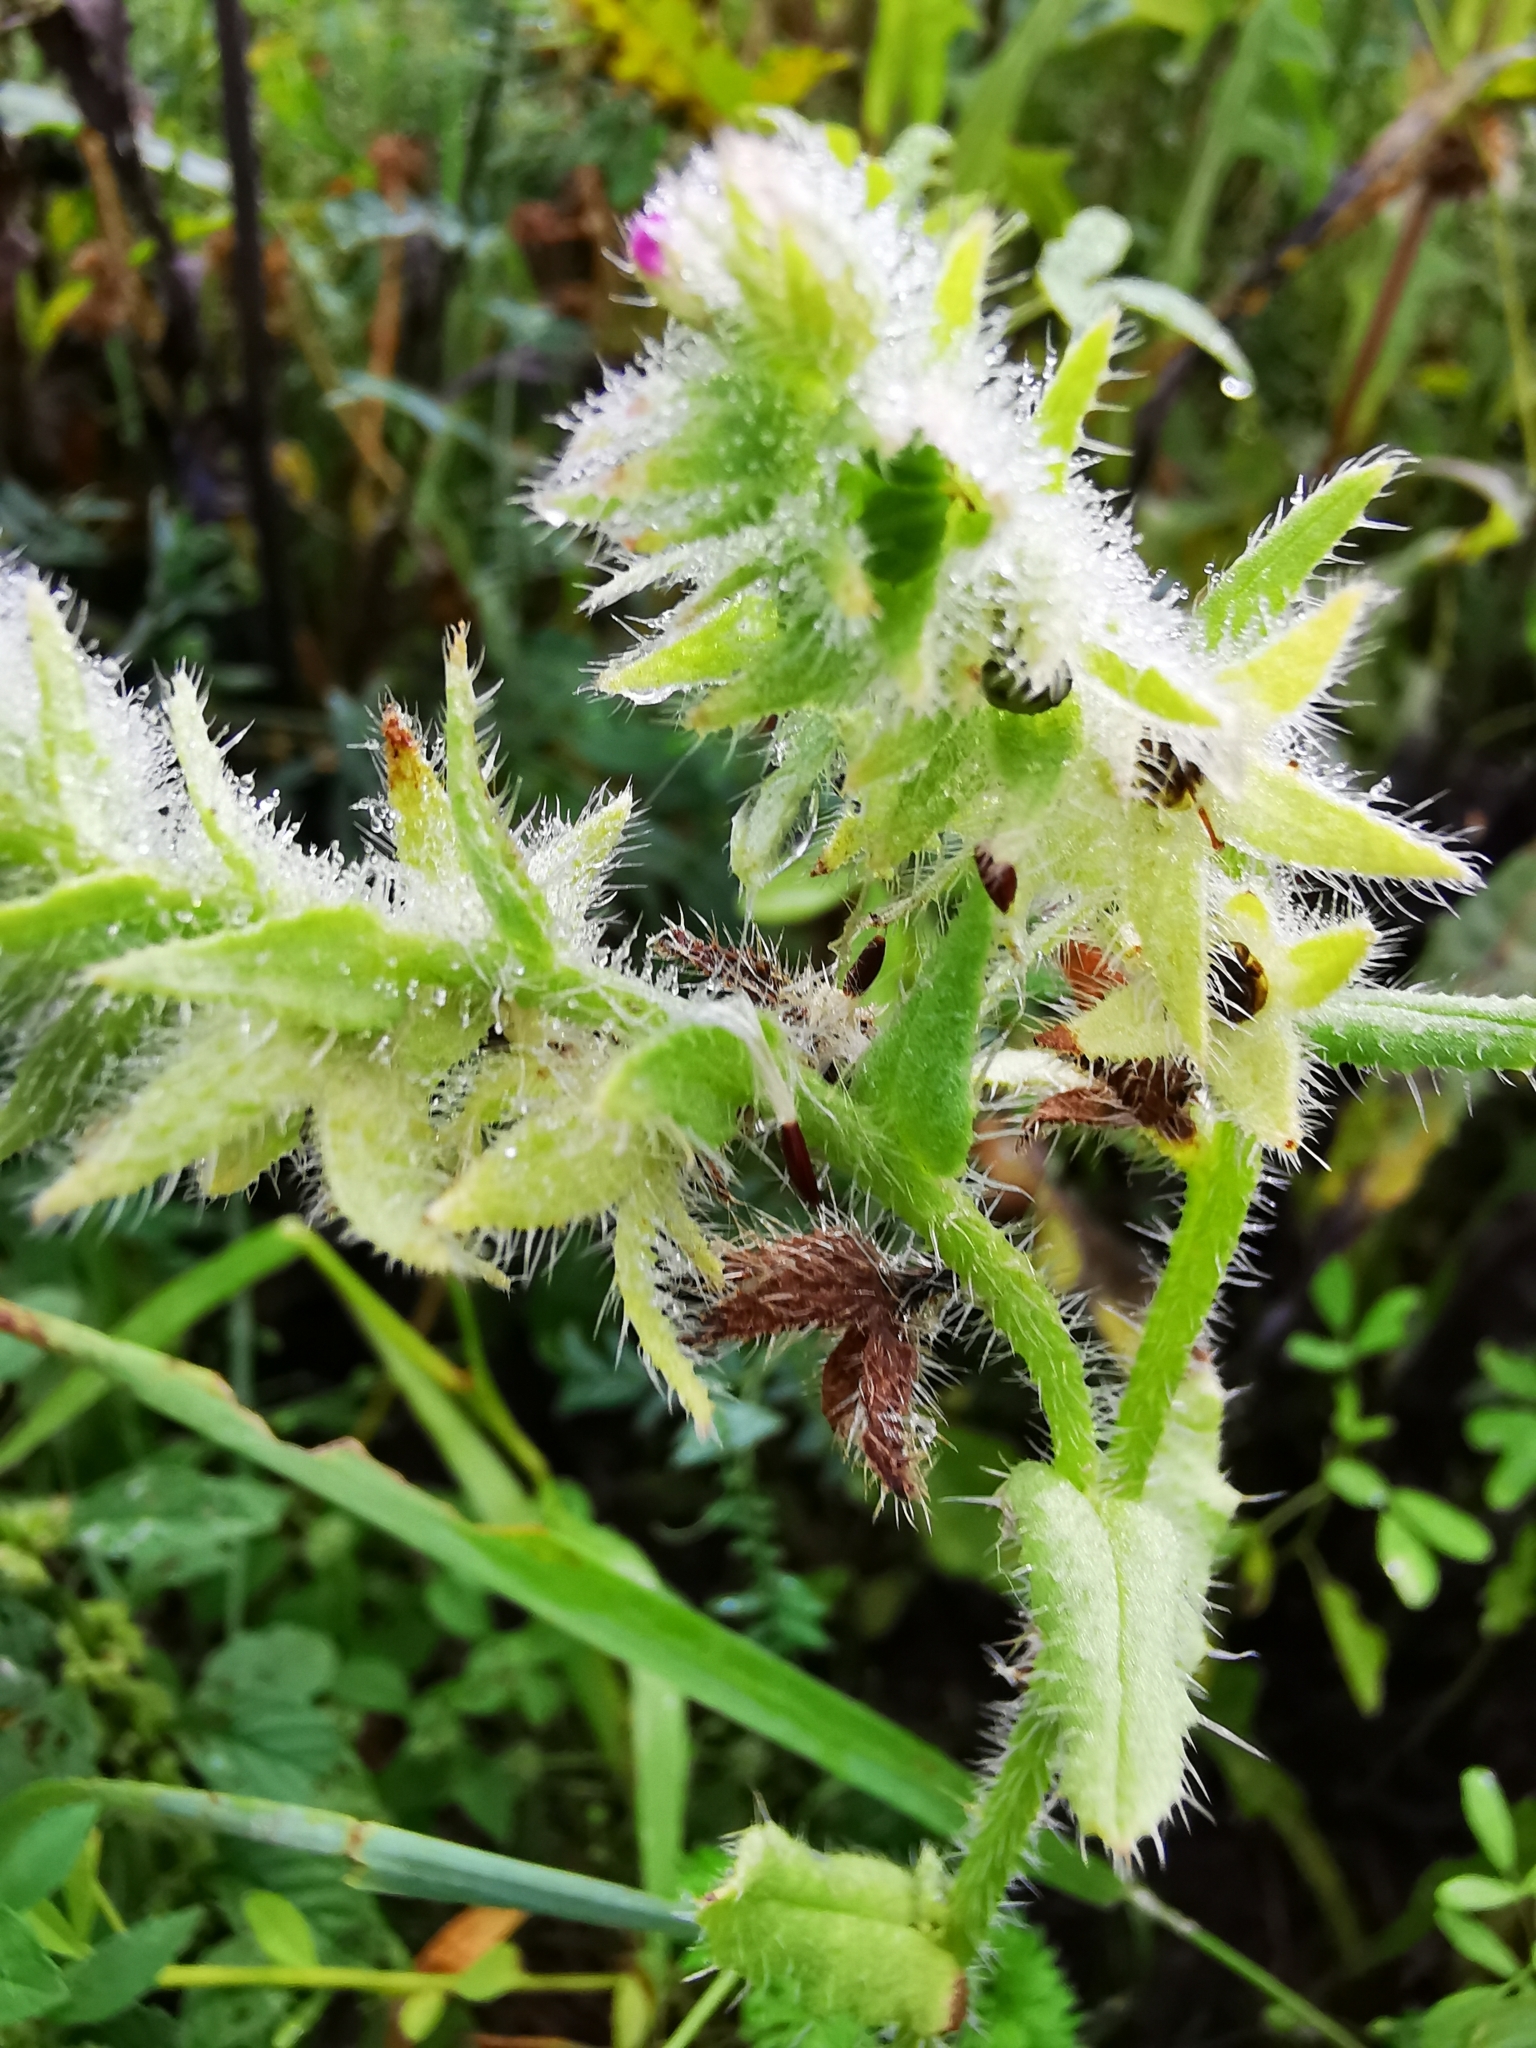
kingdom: Plantae
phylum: Tracheophyta
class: Magnoliopsida
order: Boraginales
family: Boraginaceae
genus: Lycopsis
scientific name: Lycopsis arvensis
